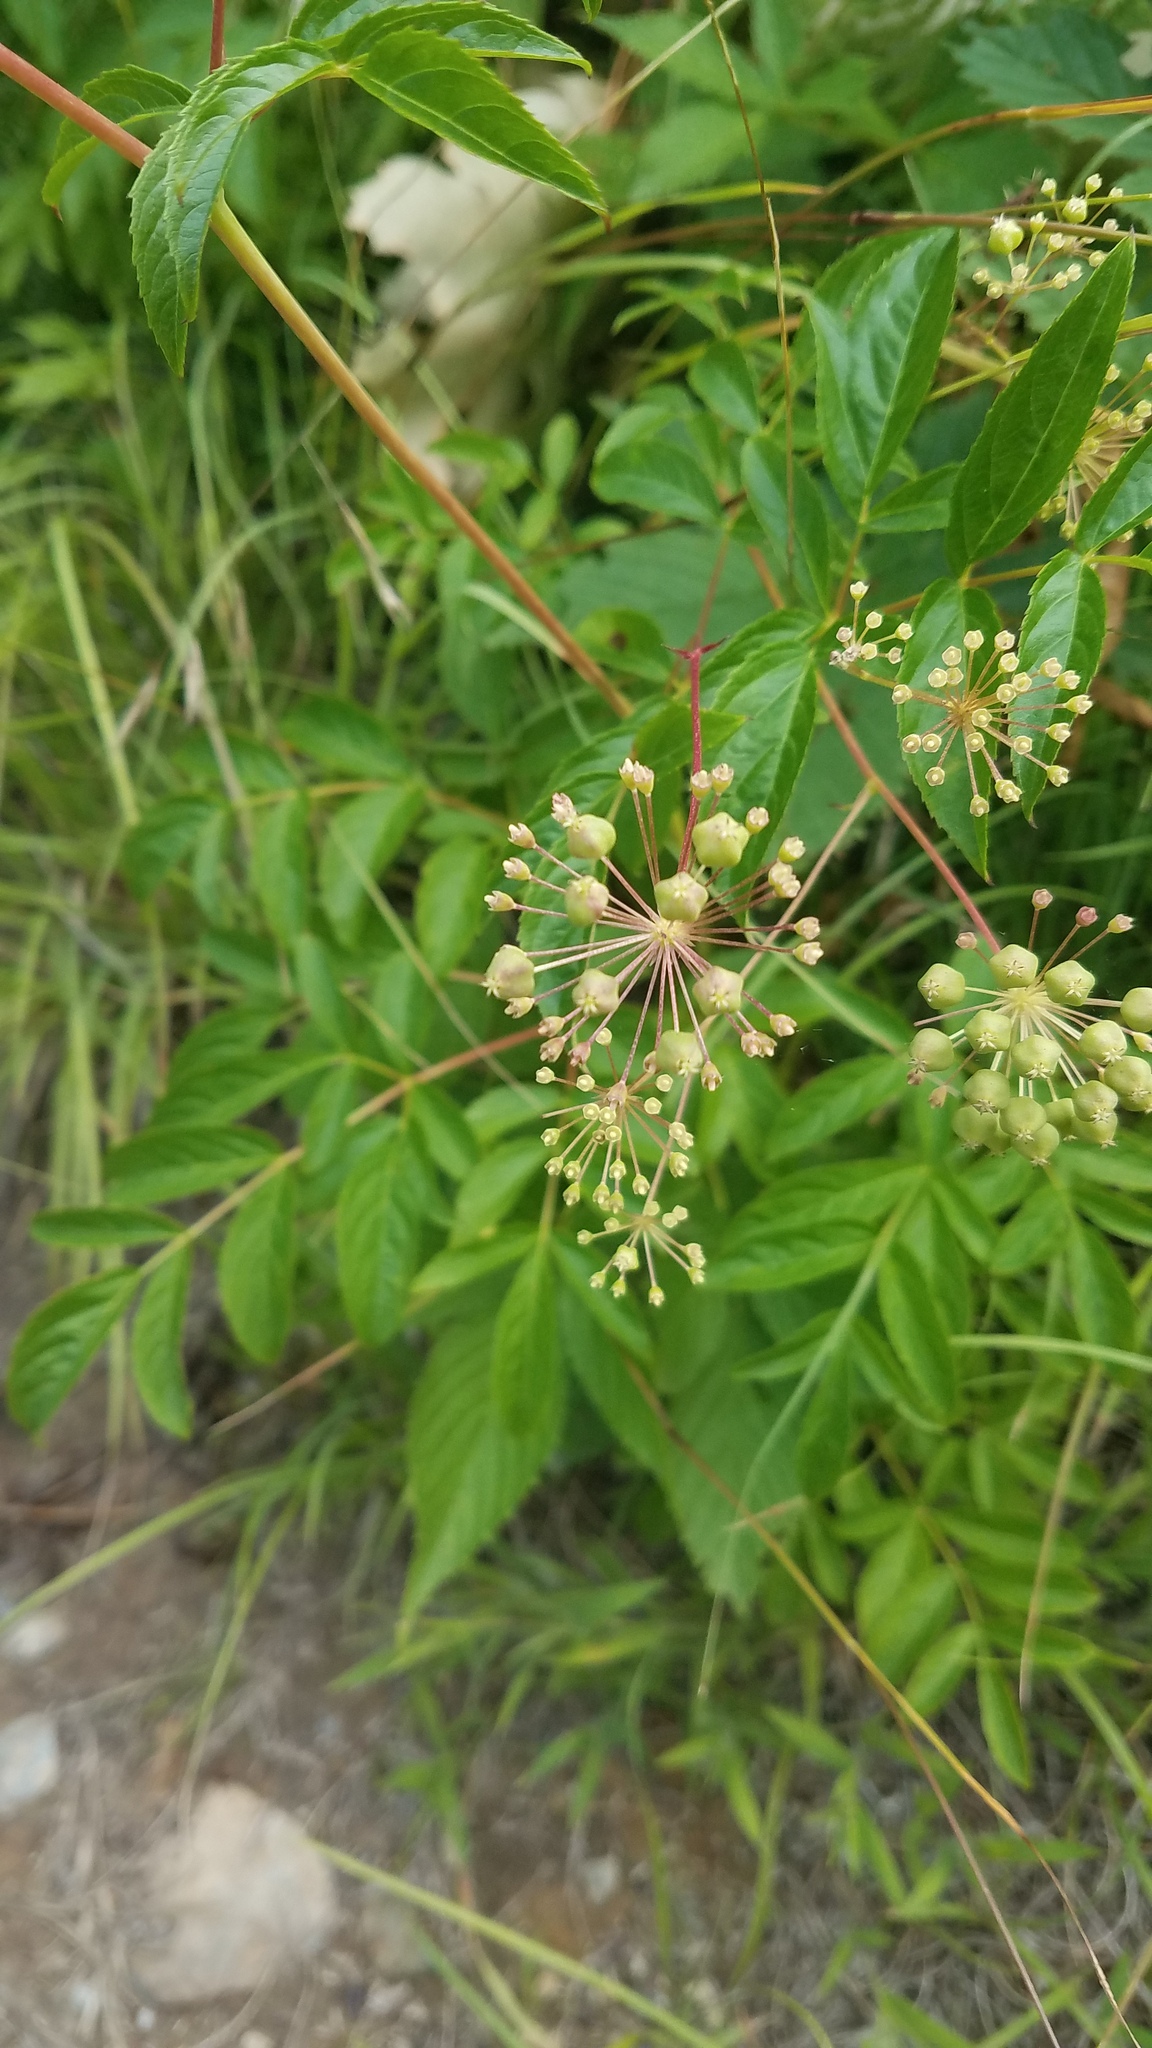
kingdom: Plantae
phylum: Tracheophyta
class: Magnoliopsida
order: Apiales
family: Araliaceae
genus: Aralia
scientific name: Aralia hispida
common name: Bristly sarsaparilla
